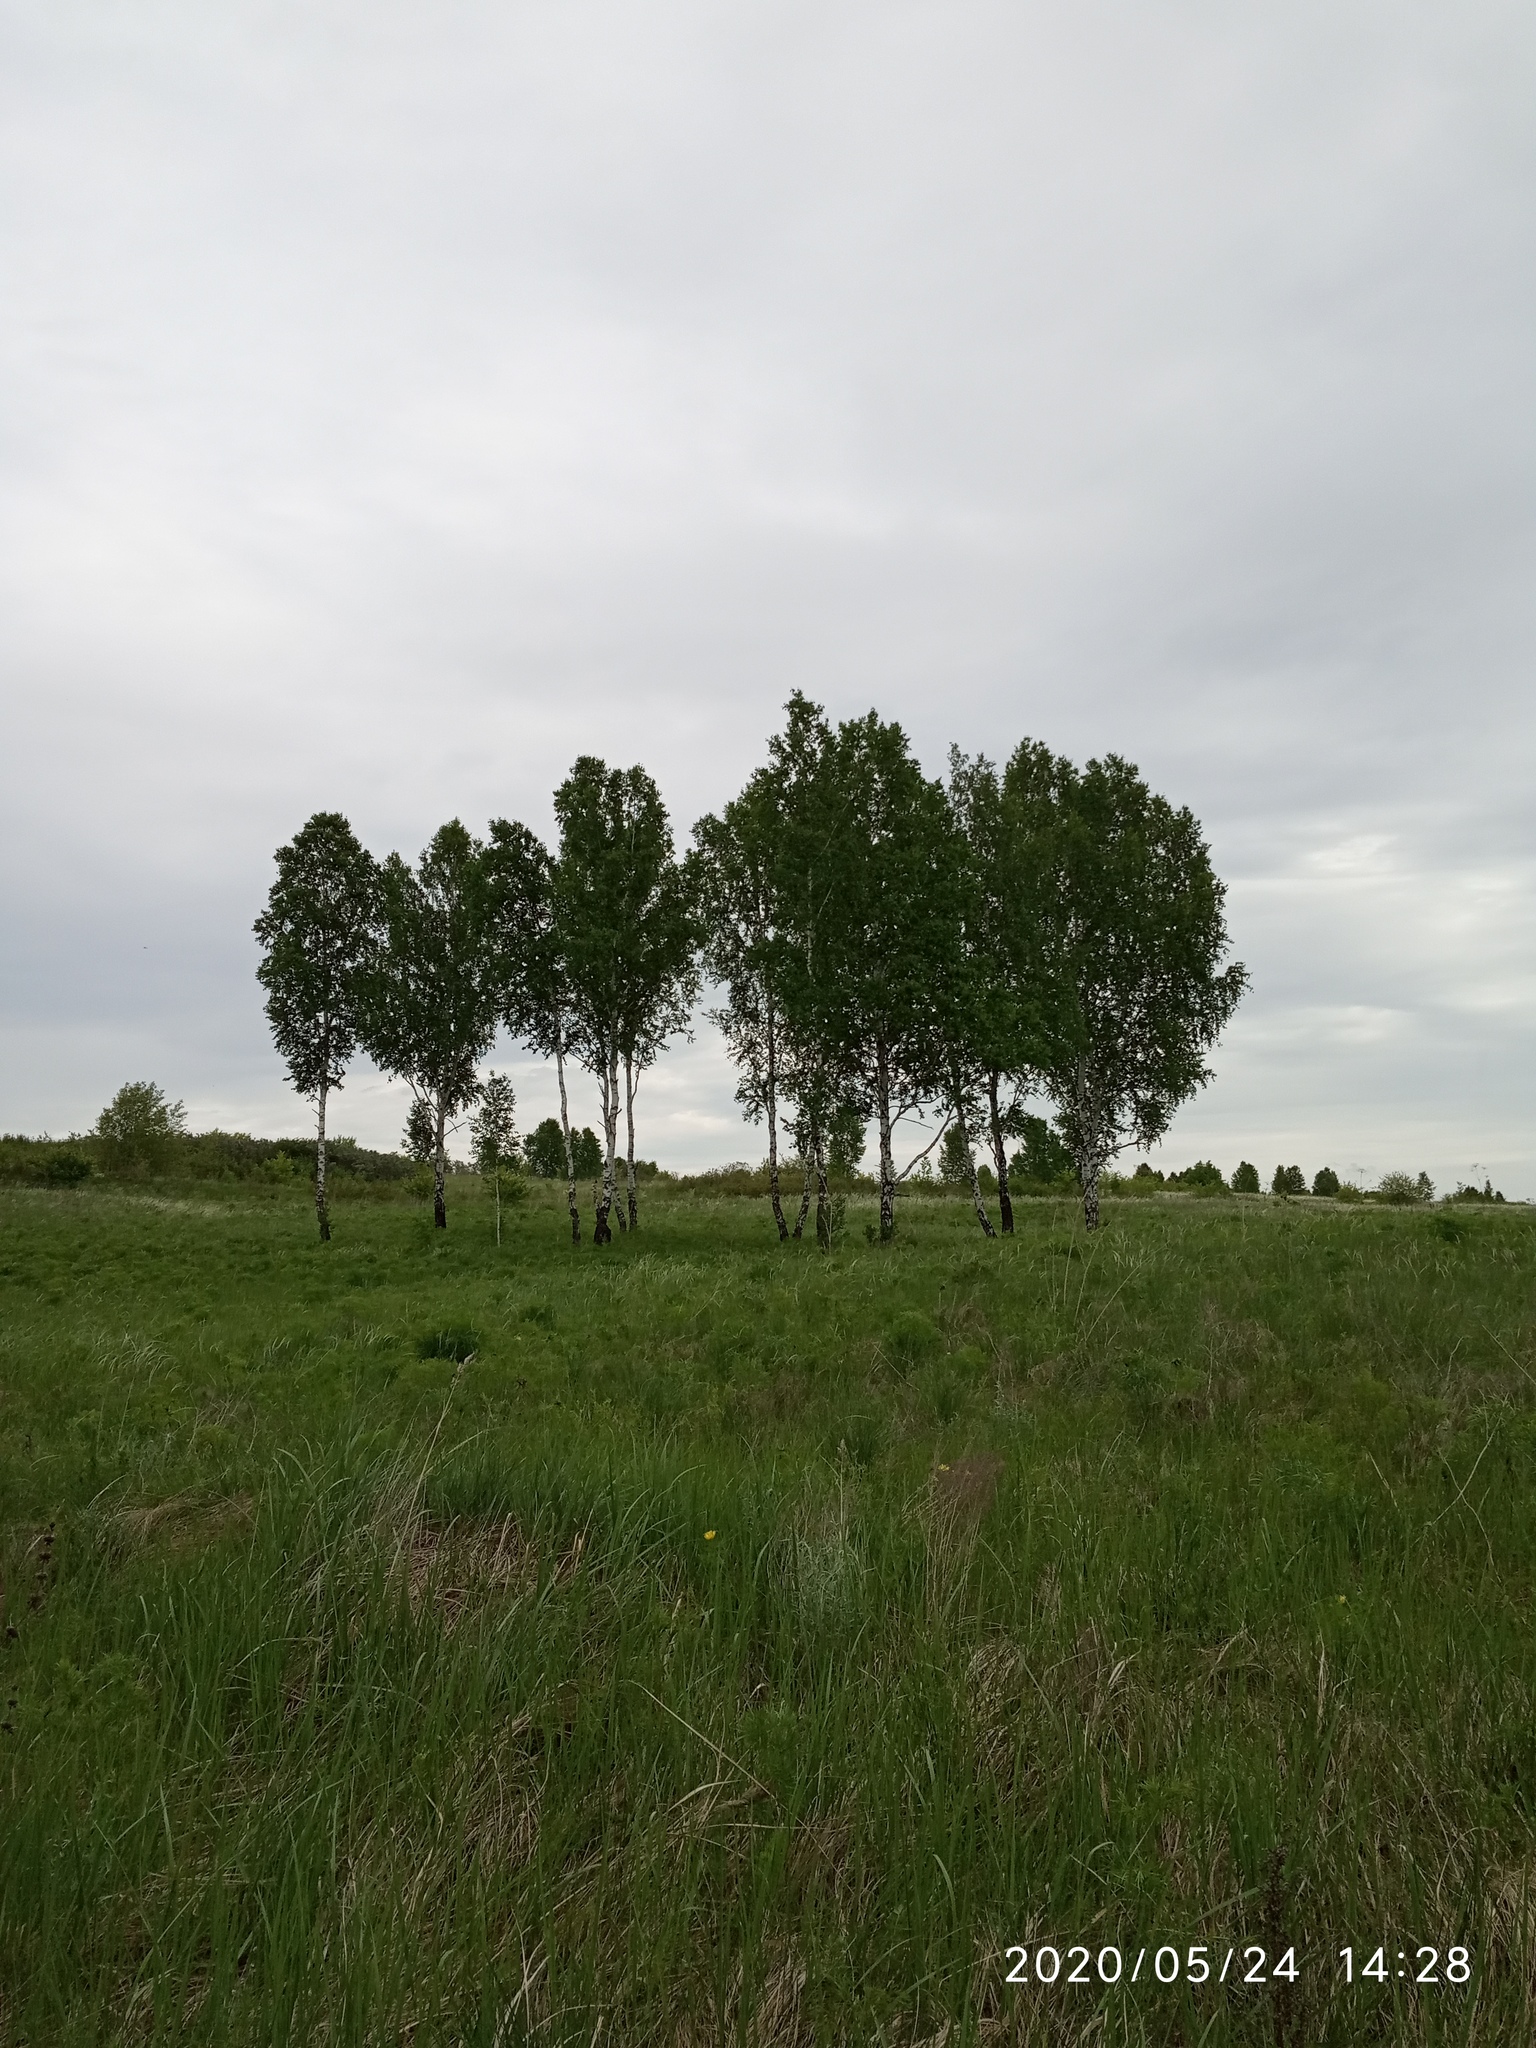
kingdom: Plantae
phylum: Tracheophyta
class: Magnoliopsida
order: Fagales
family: Betulaceae
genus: Betula
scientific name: Betula pendula
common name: Silver birch
